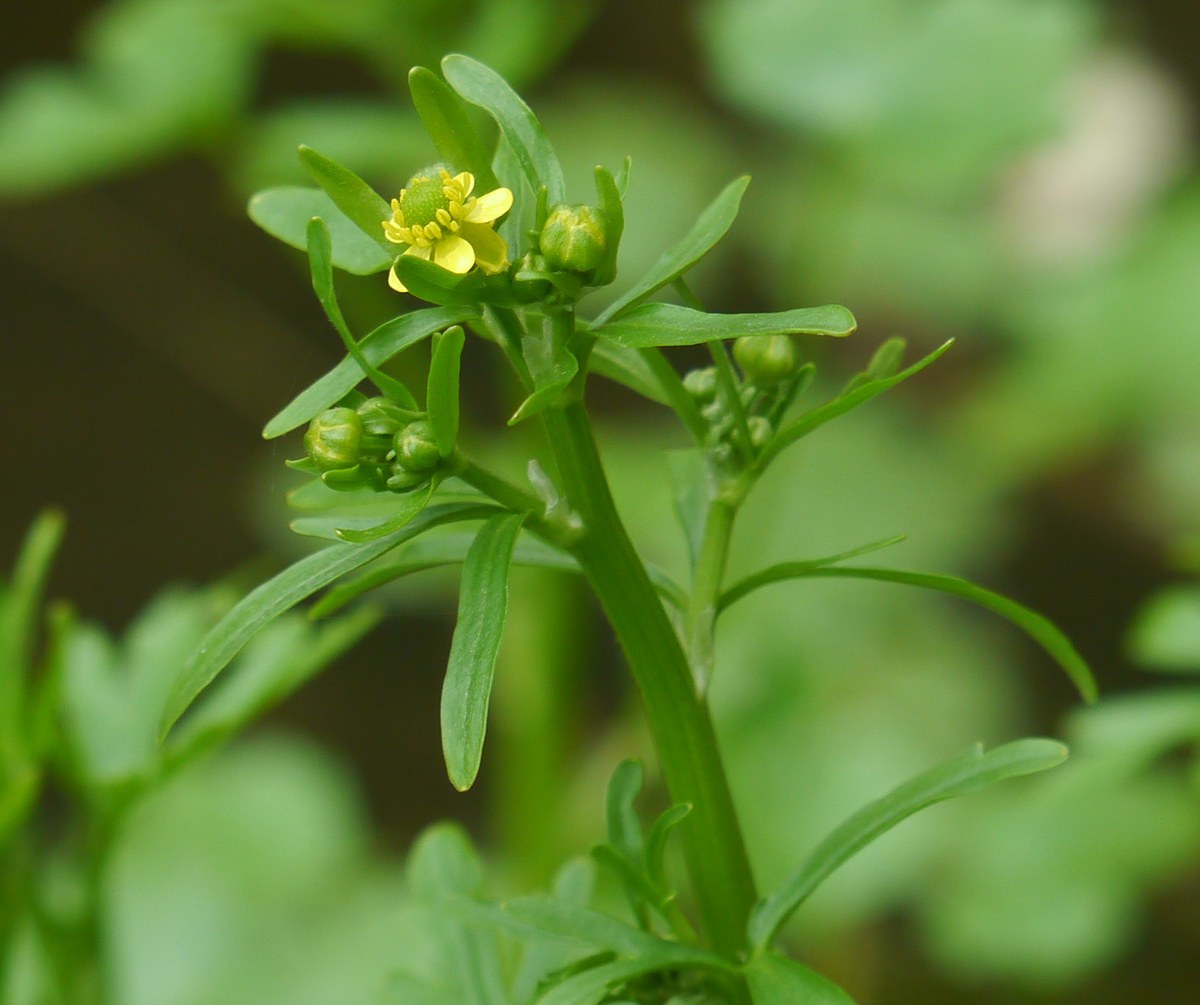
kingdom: Plantae
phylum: Tracheophyta
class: Magnoliopsida
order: Ranunculales
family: Ranunculaceae
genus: Ranunculus
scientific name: Ranunculus sceleratus
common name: Celery-leaved buttercup
